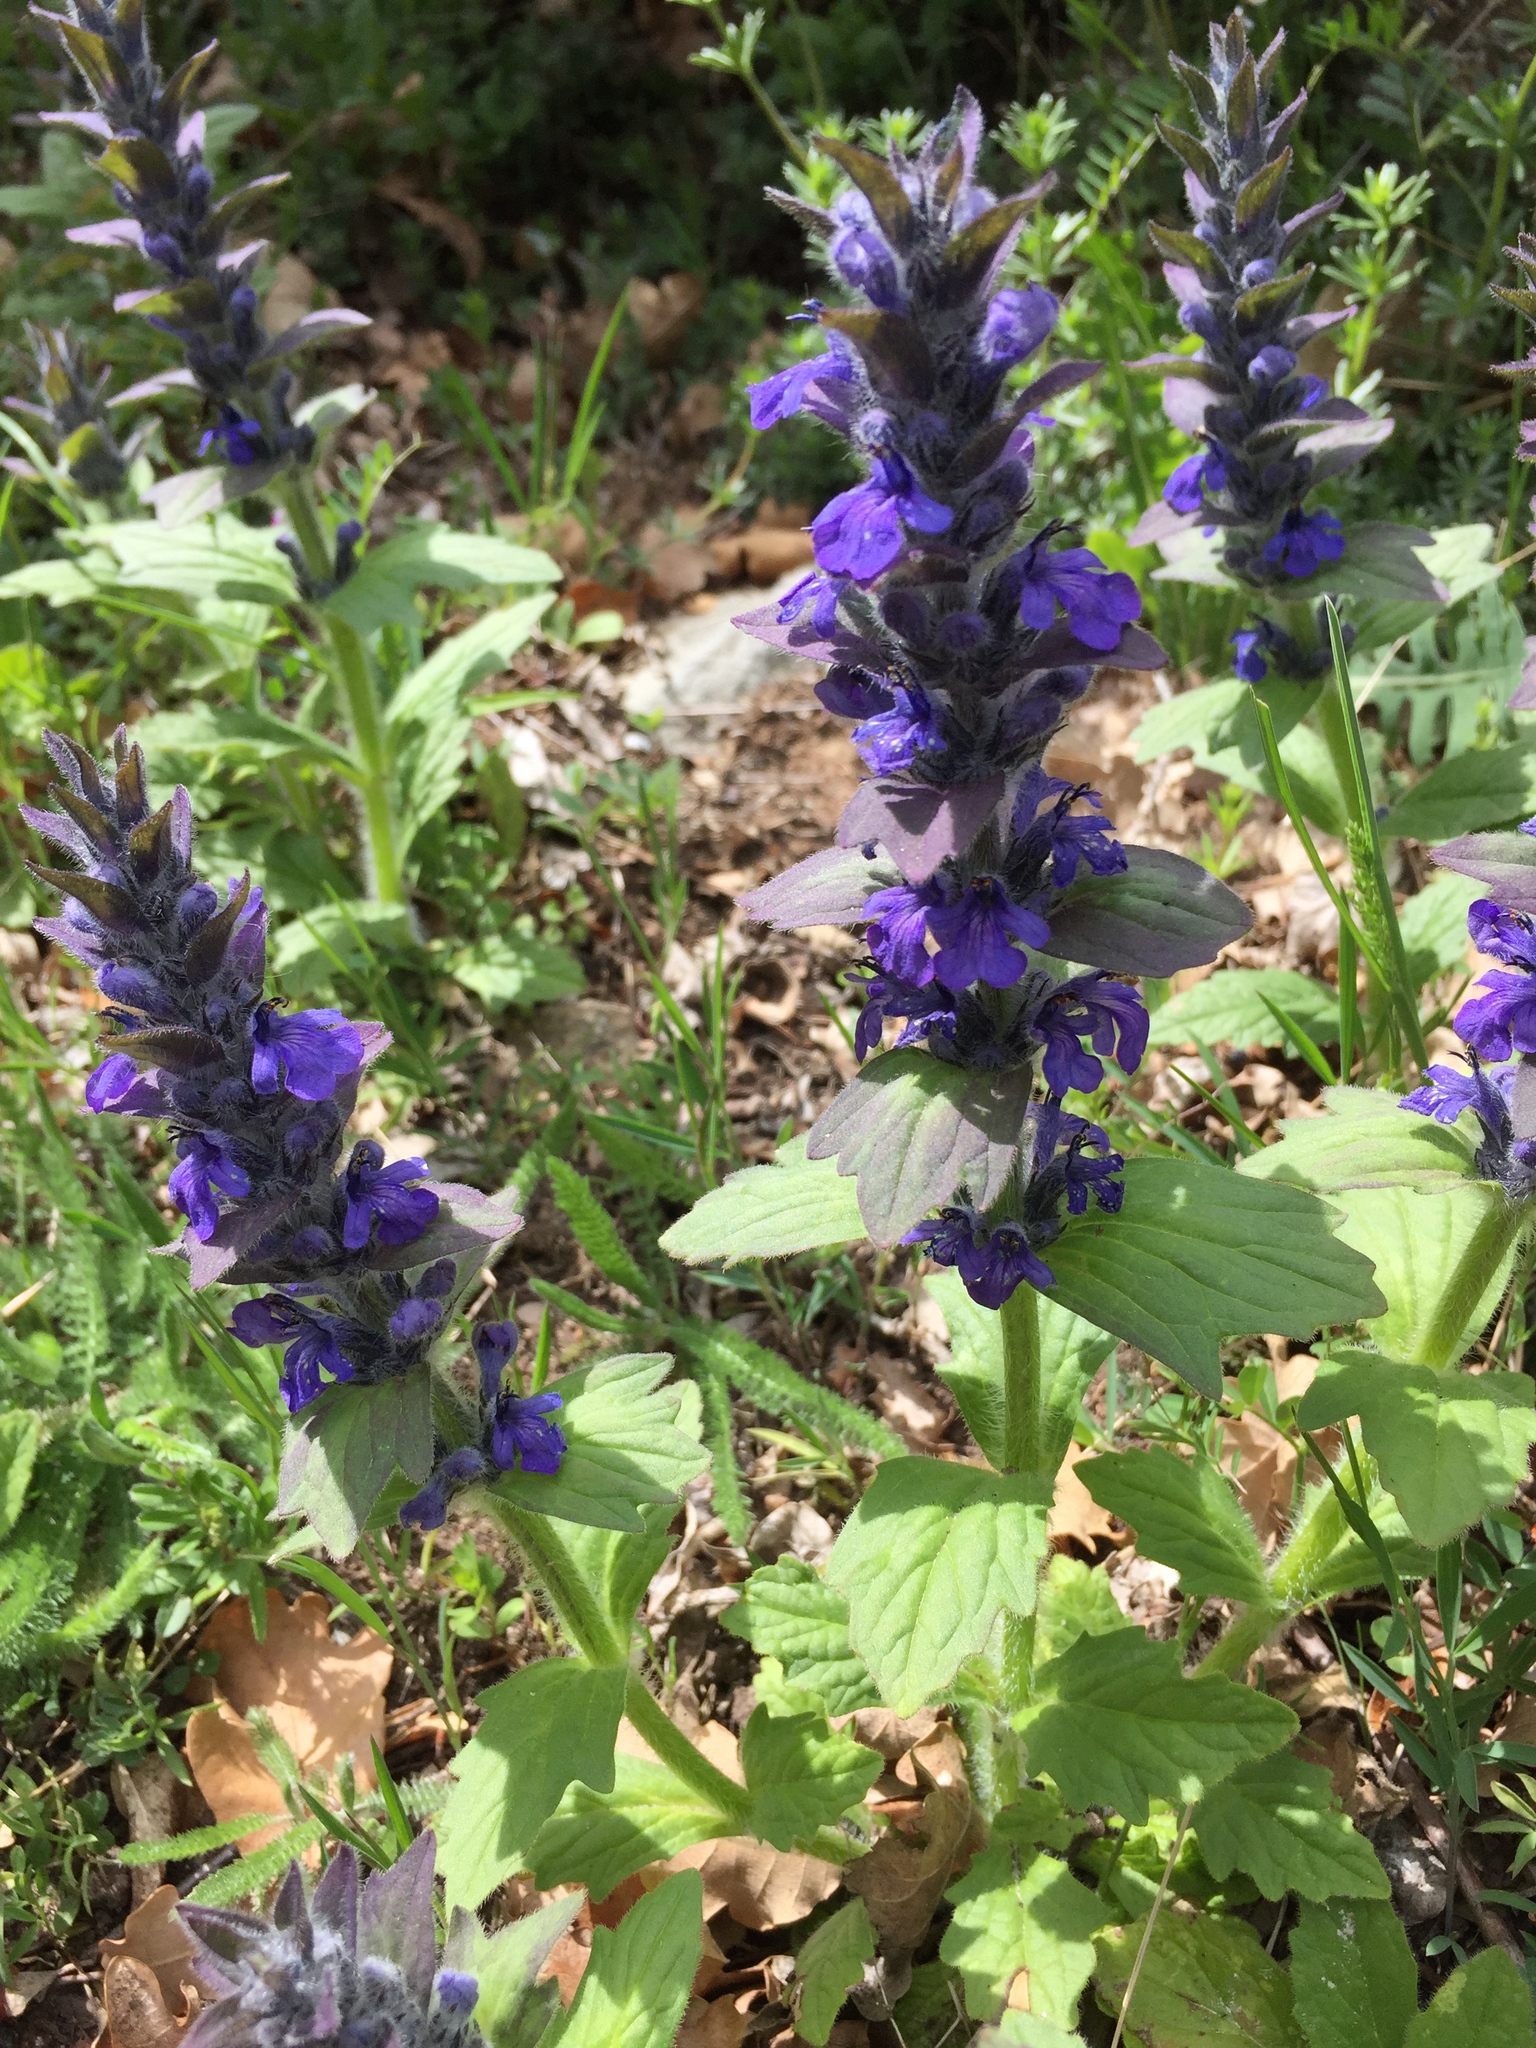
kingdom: Plantae
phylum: Tracheophyta
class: Magnoliopsida
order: Lamiales
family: Lamiaceae
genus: Ajuga
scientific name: Ajuga genevensis
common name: Blue bugle
